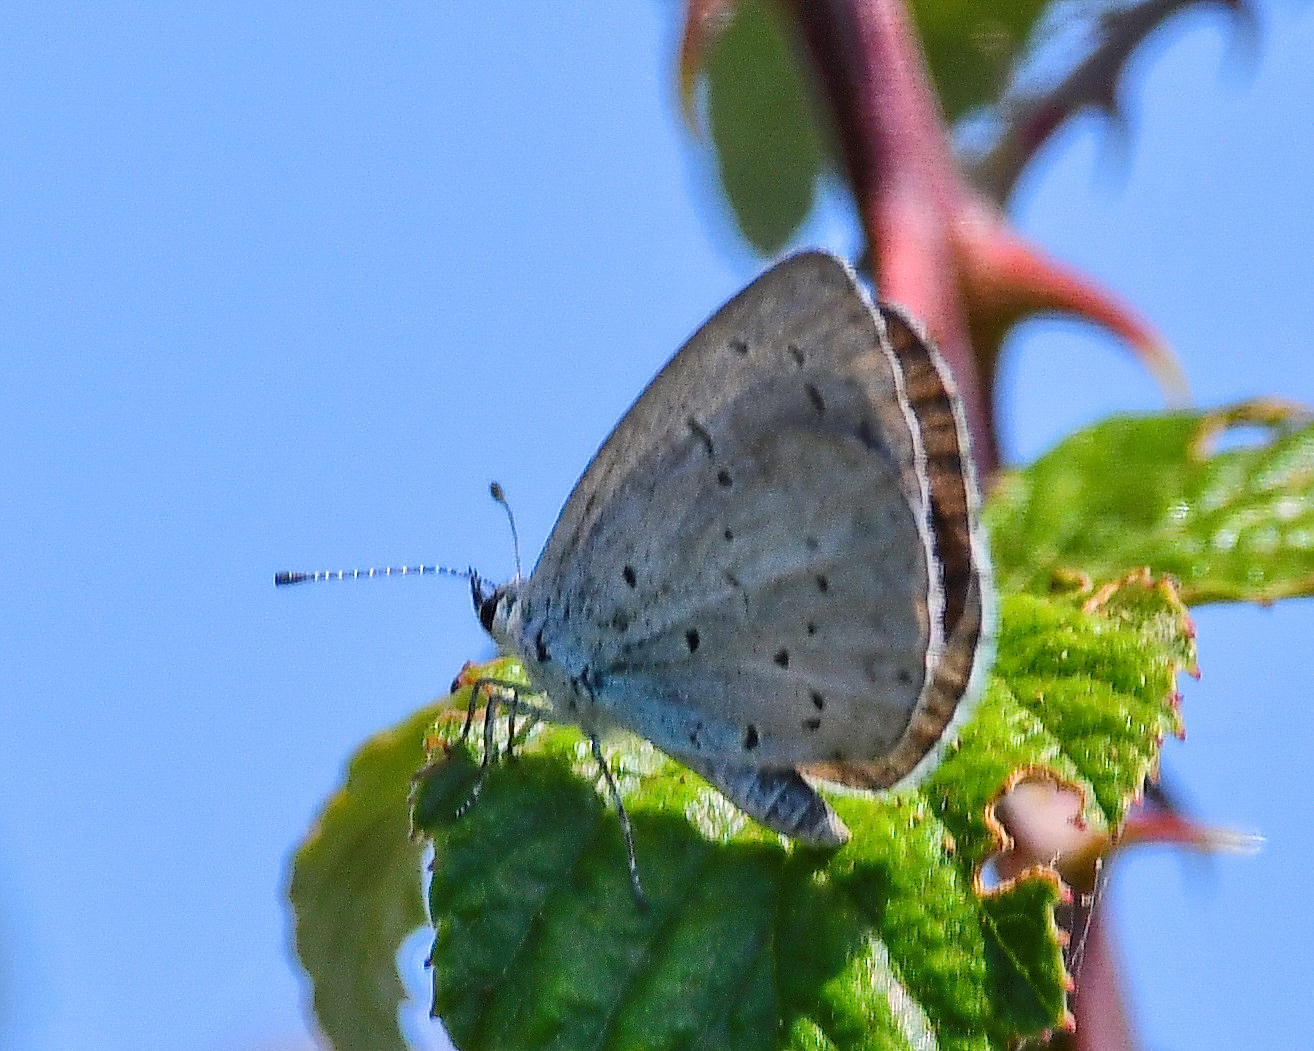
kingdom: Animalia
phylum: Arthropoda
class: Insecta
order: Lepidoptera
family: Lycaenidae
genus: Celastrina
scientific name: Celastrina argiolus
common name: Holly blue
